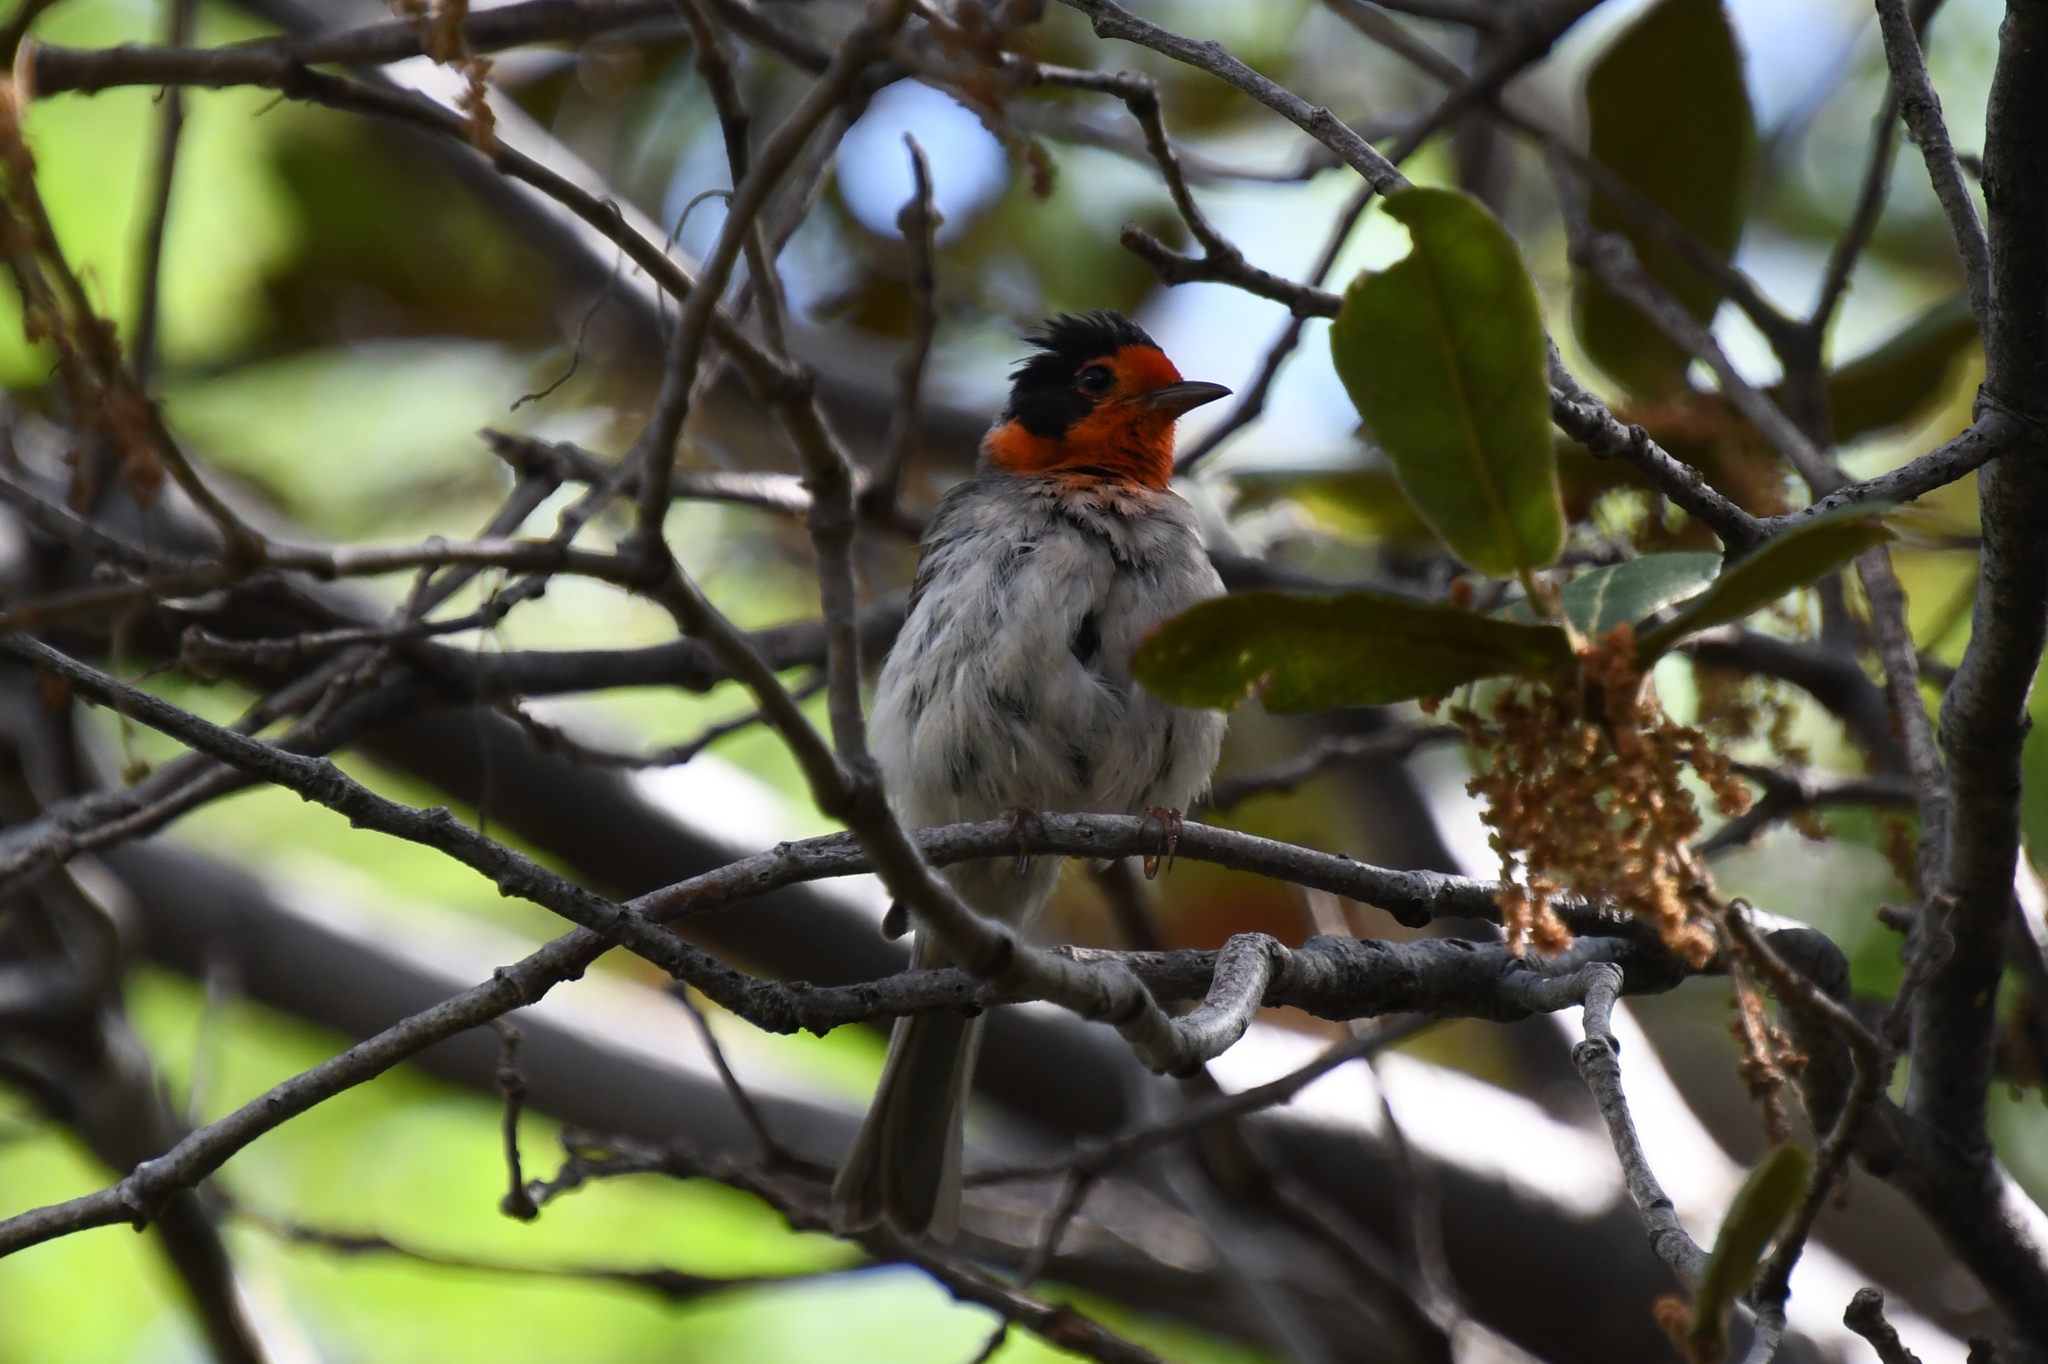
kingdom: Animalia
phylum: Chordata
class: Aves
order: Passeriformes
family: Parulidae
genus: Cardellina
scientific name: Cardellina rubrifrons
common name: Red-faced warbler
